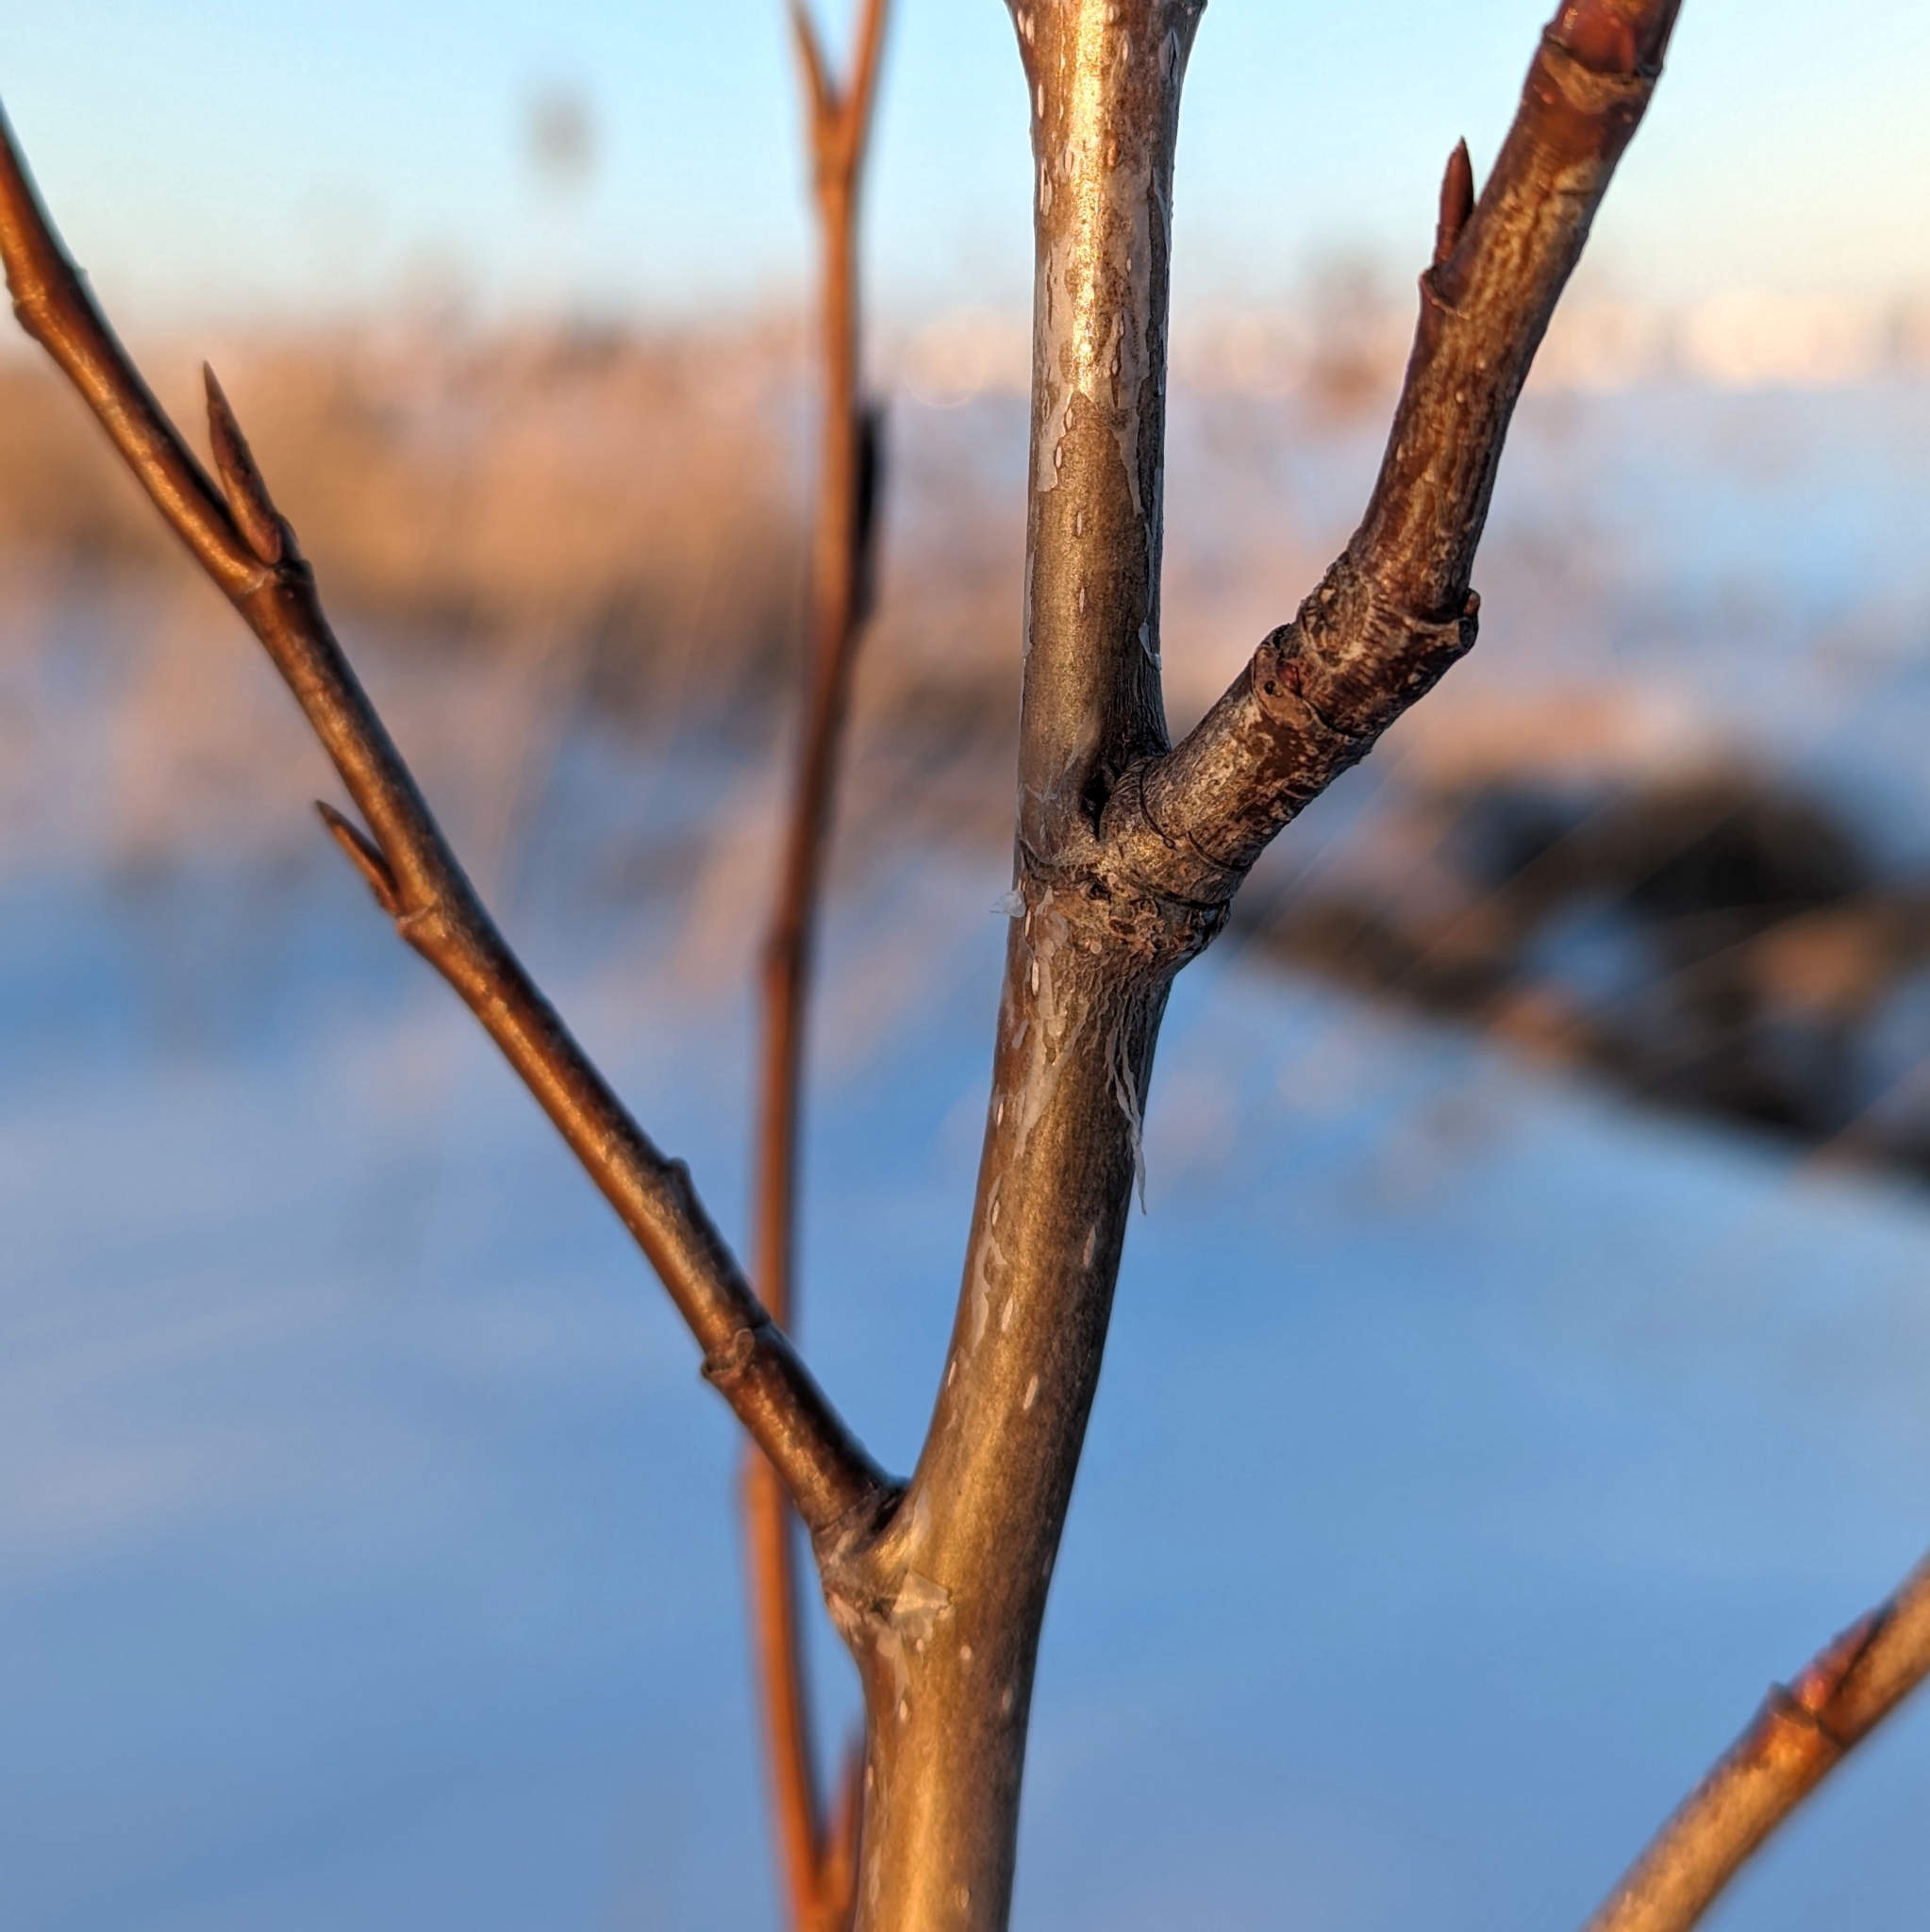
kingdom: Plantae
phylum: Tracheophyta
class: Magnoliopsida
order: Malpighiales
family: Salicaceae
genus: Populus
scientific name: Populus balsamifera
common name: Balsam poplar
